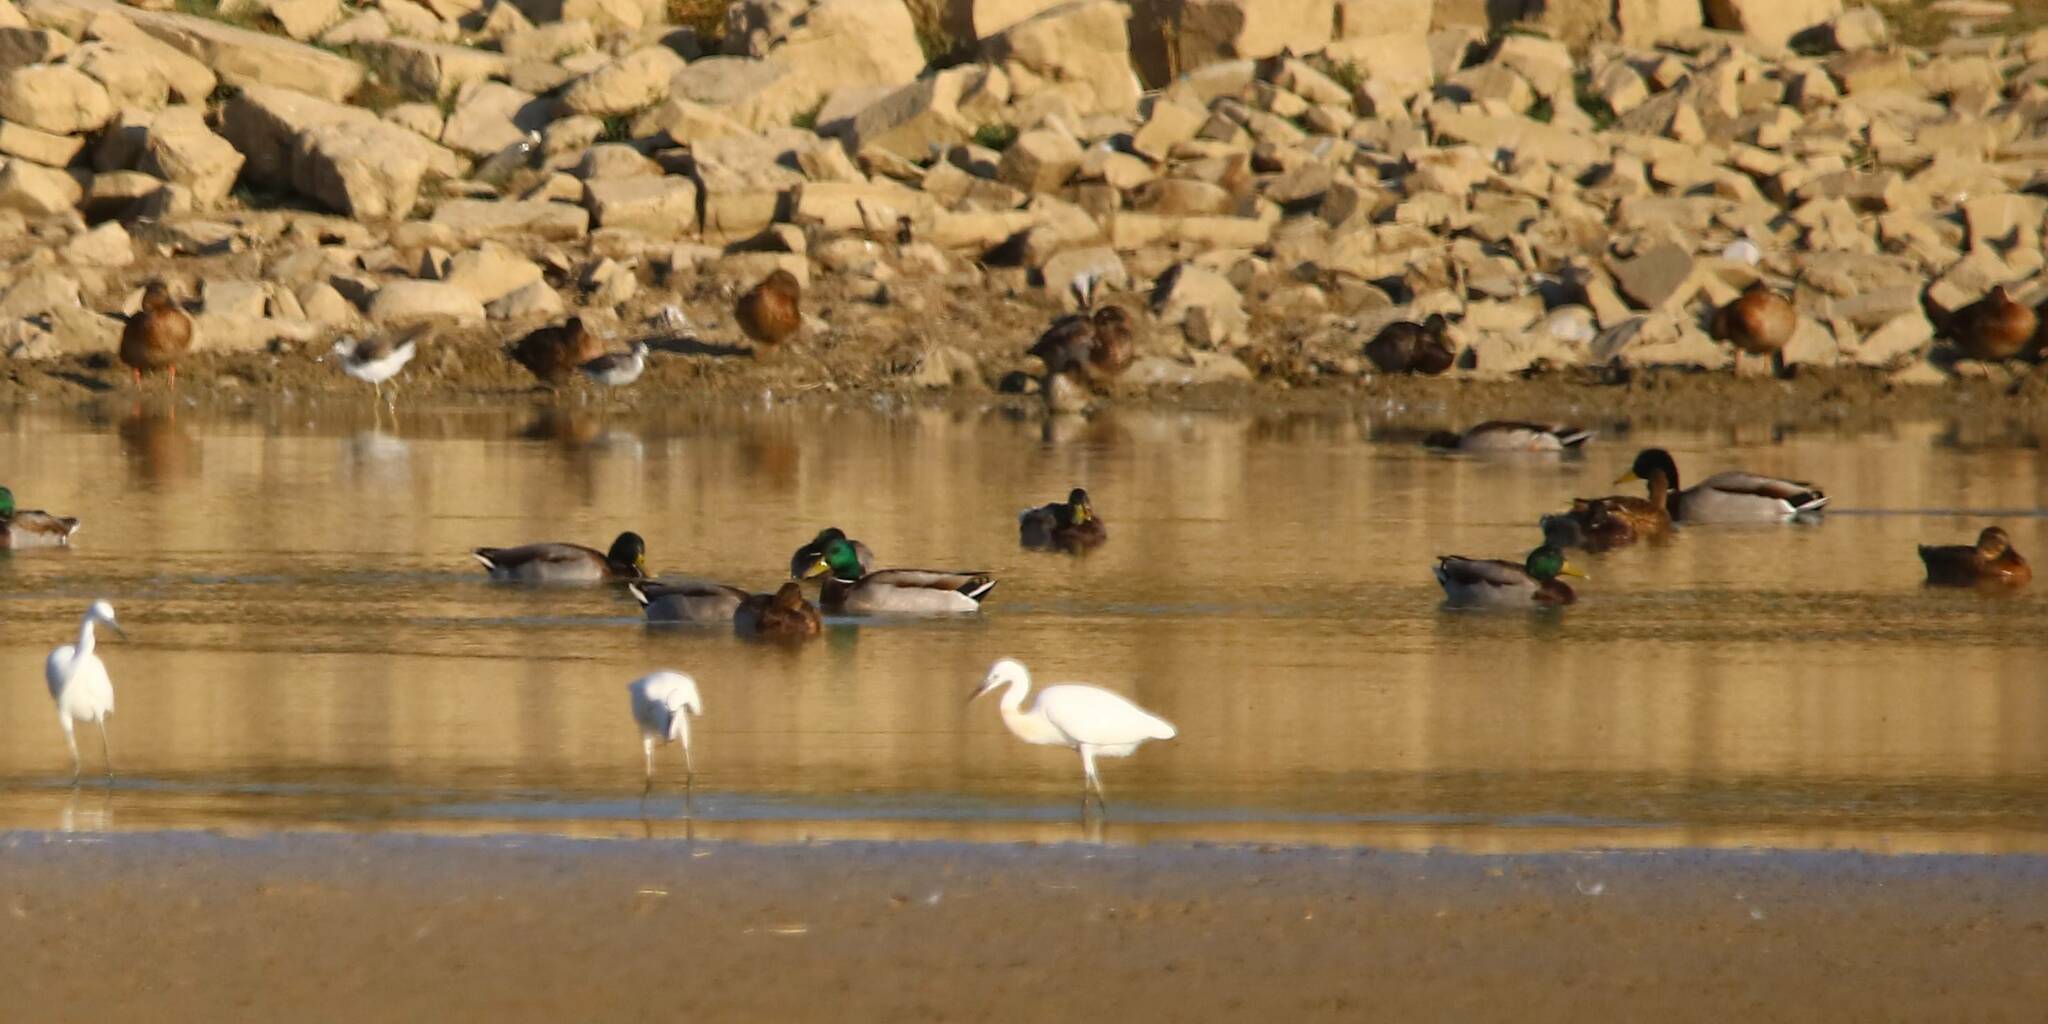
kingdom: Animalia
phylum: Chordata
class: Aves
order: Anseriformes
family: Anatidae
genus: Anas
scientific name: Anas platyrhynchos
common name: Mallard
